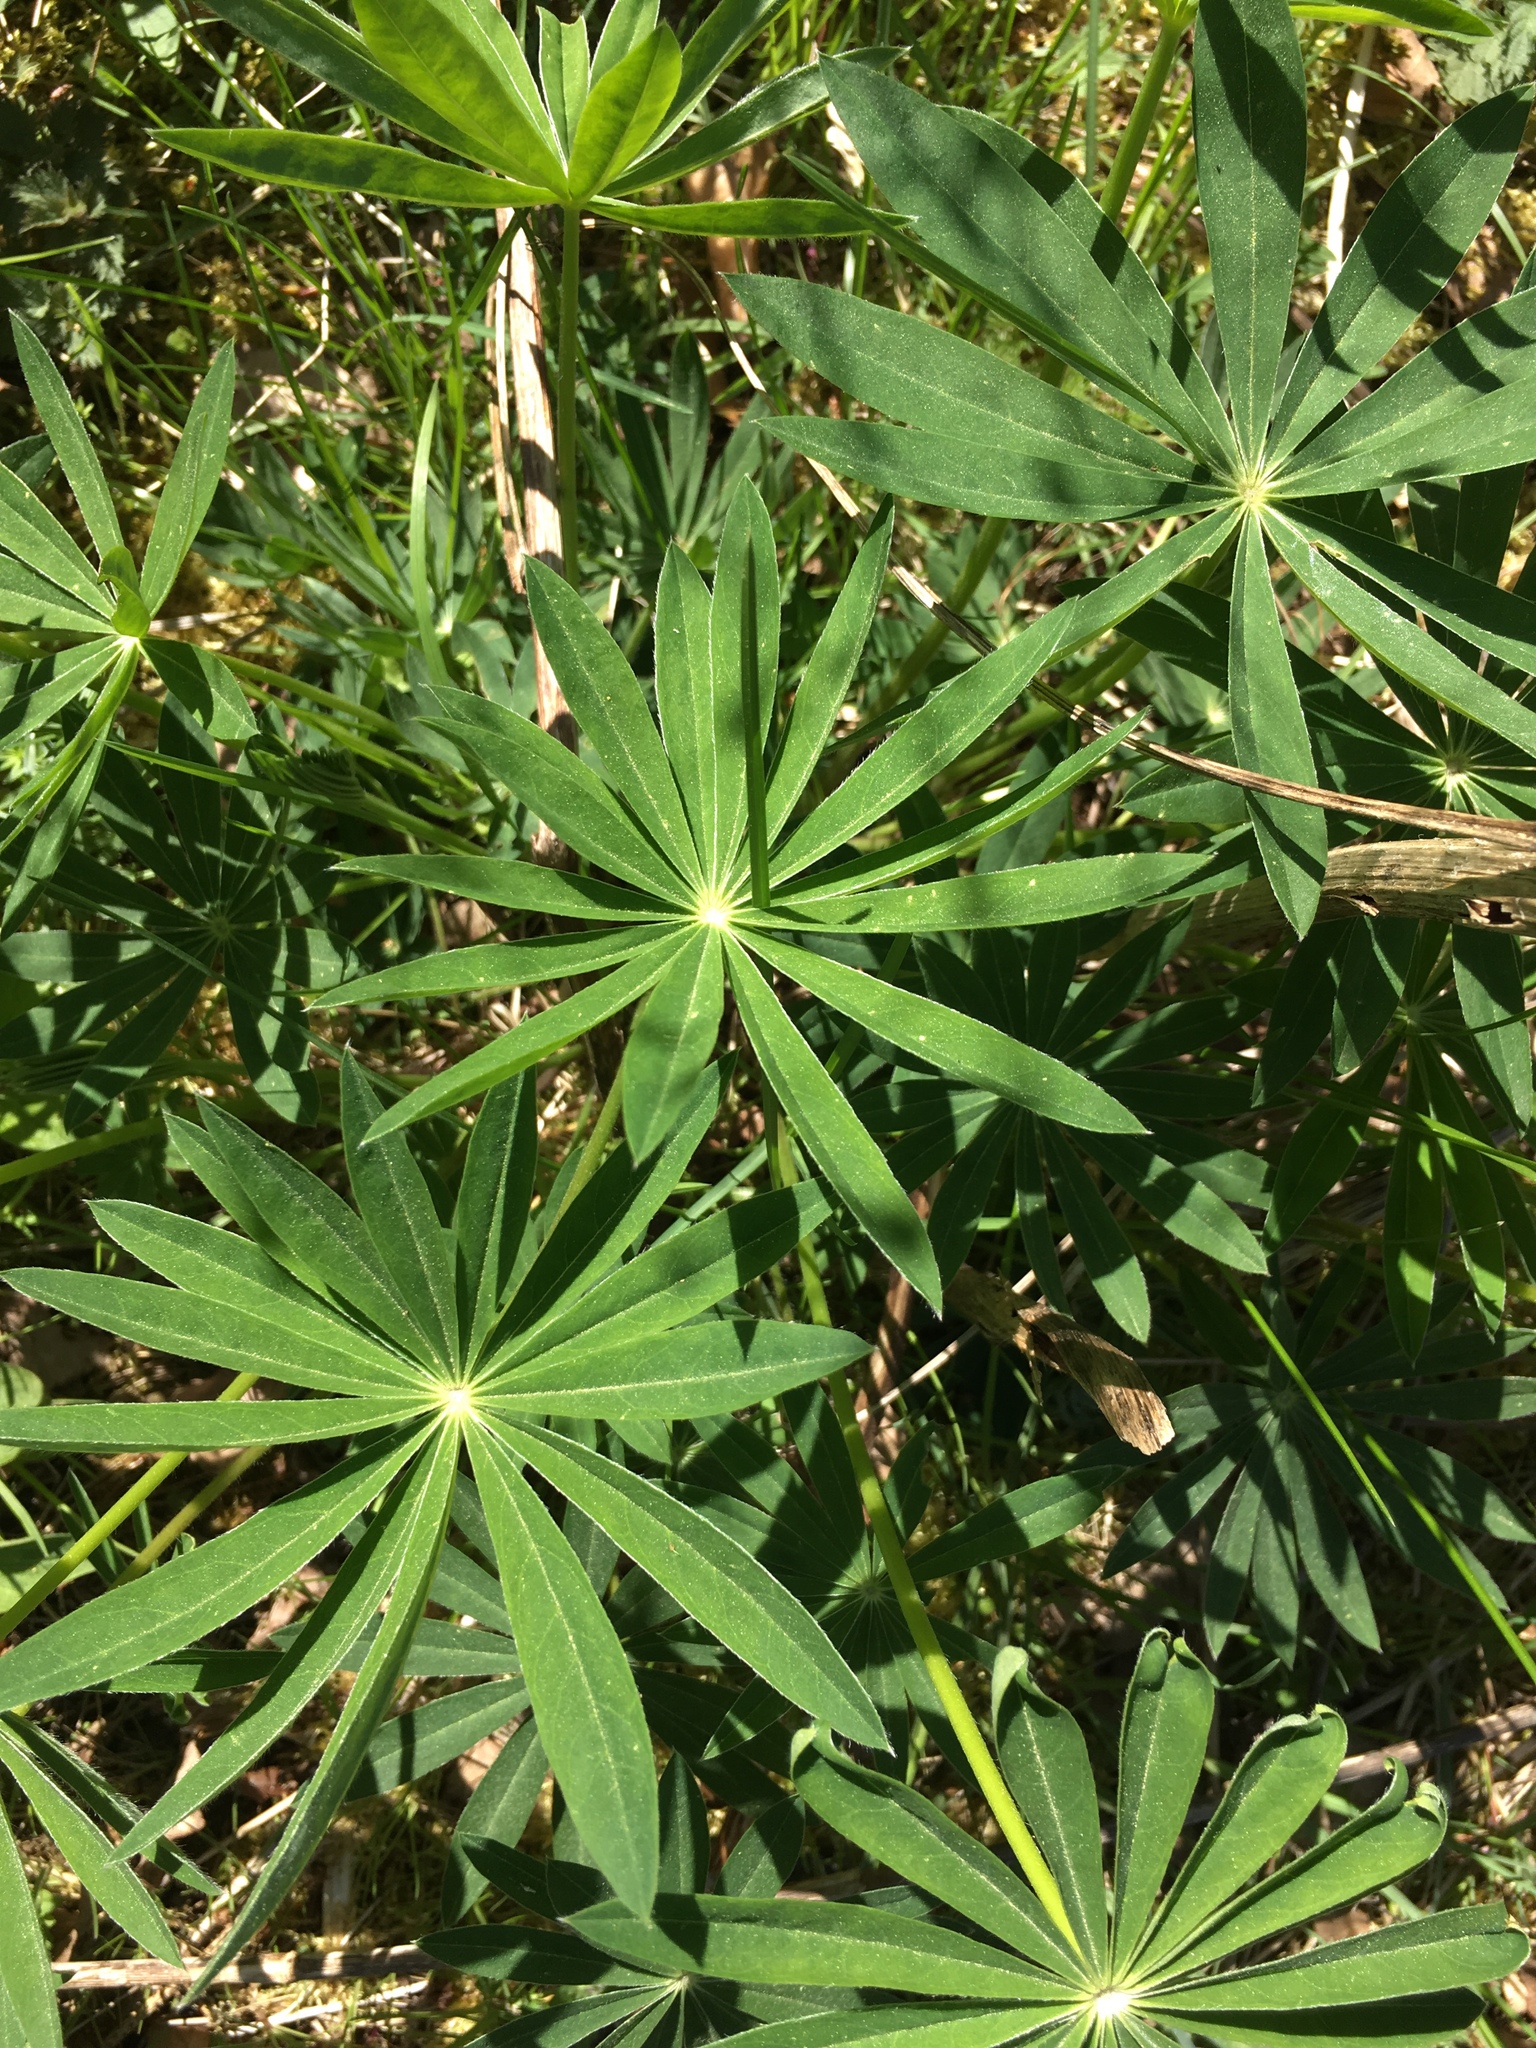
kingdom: Plantae
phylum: Tracheophyta
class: Magnoliopsida
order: Fabales
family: Fabaceae
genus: Lupinus
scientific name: Lupinus polyphyllus
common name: Garden lupin
